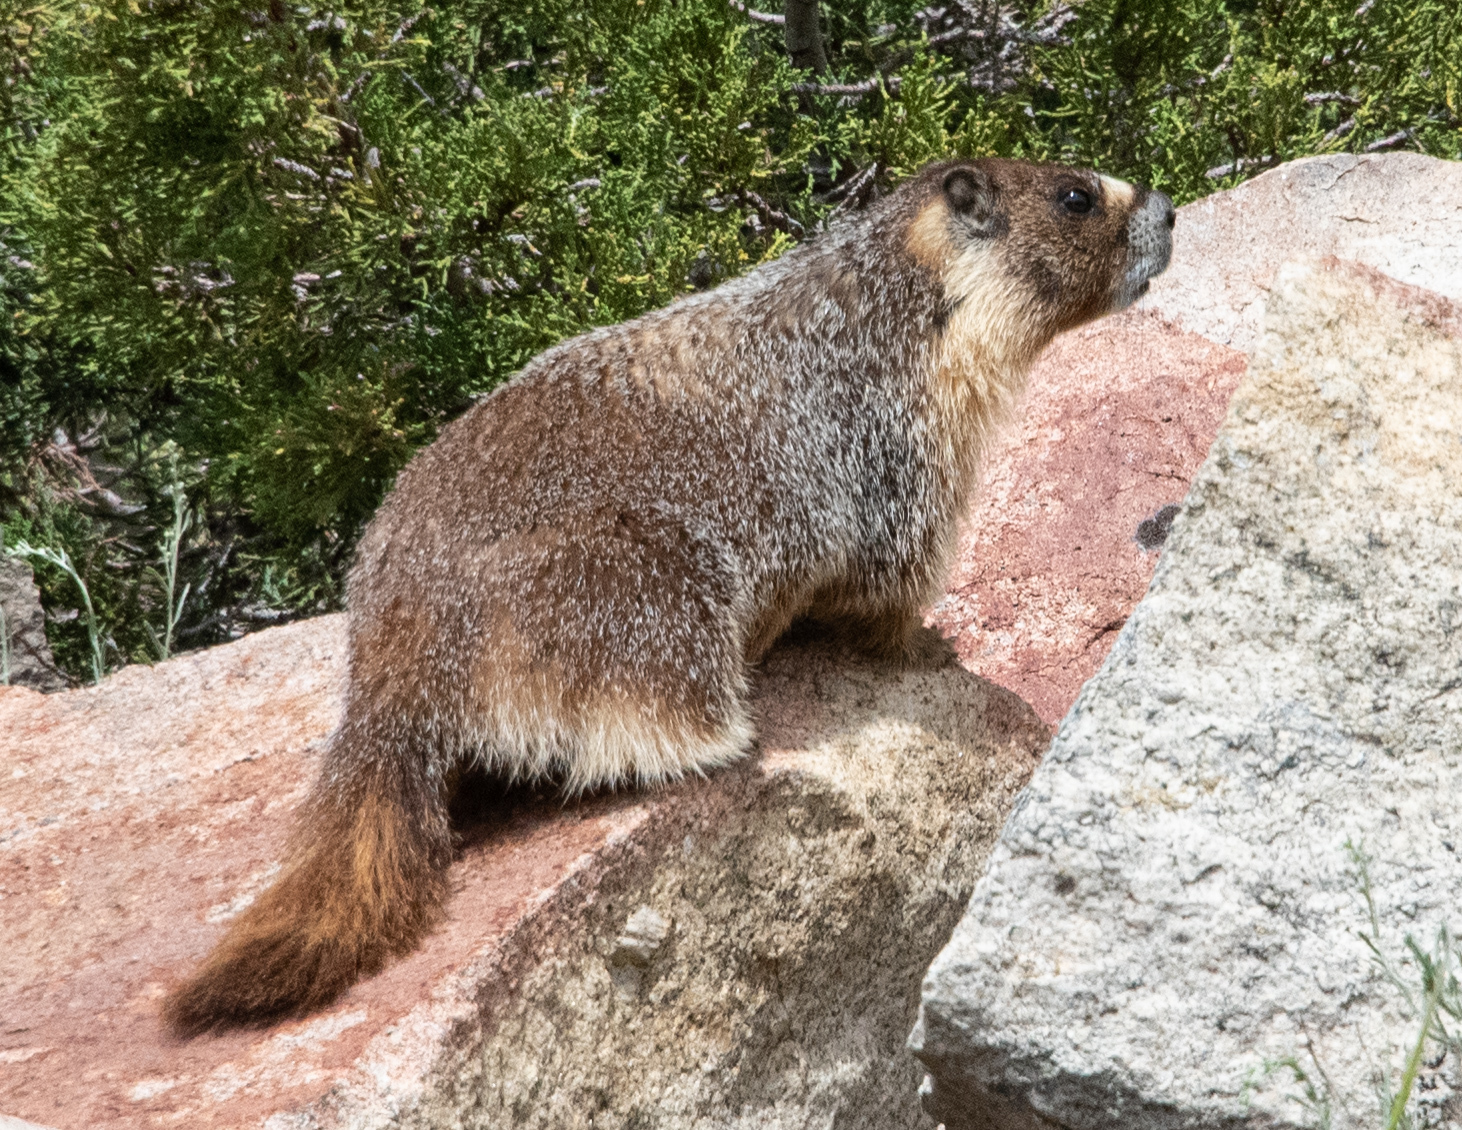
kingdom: Animalia
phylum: Chordata
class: Mammalia
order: Rodentia
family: Sciuridae
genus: Marmota
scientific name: Marmota flaviventris
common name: Yellow-bellied marmot
